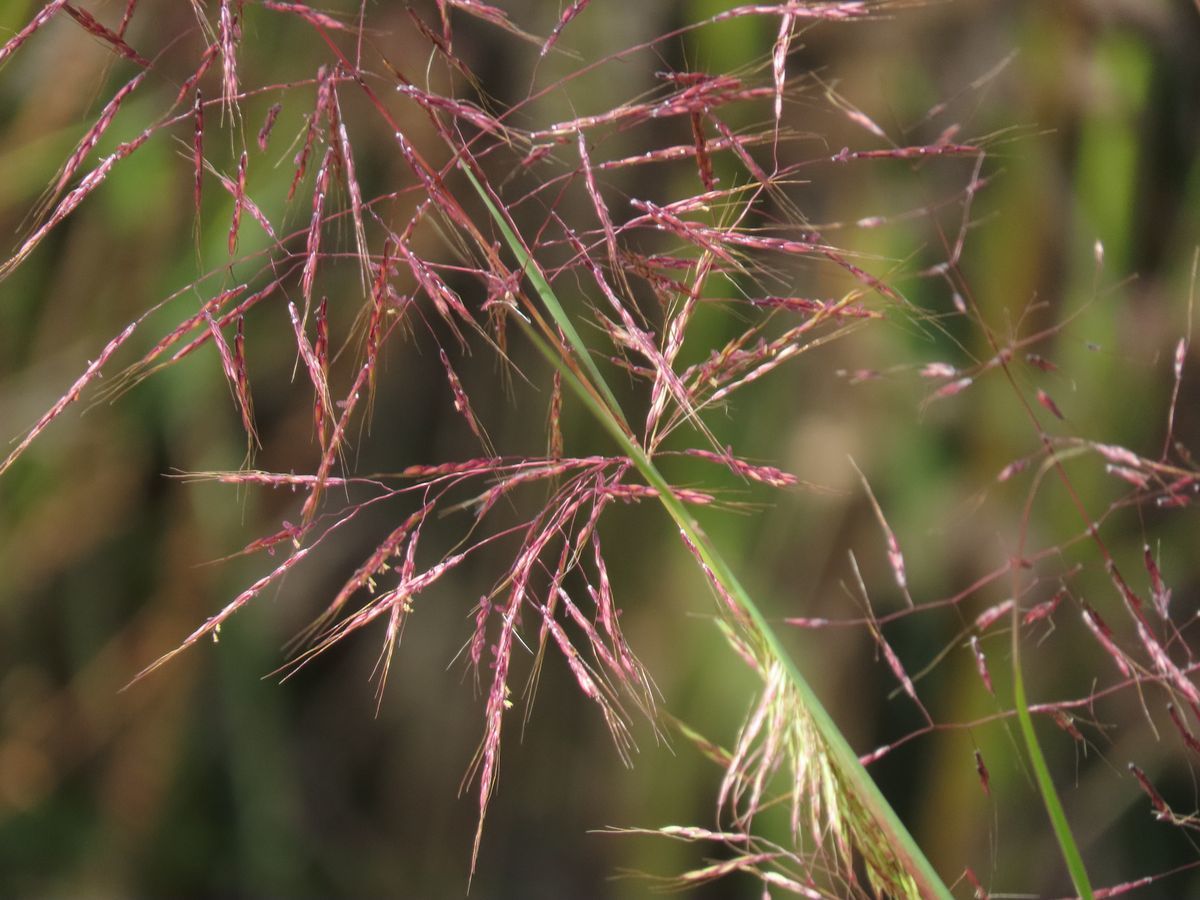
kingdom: Plantae
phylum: Tracheophyta
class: Liliopsida
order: Poales
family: Poaceae
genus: Capillipedium
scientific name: Capillipedium spicigerum
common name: Scented-top grass
